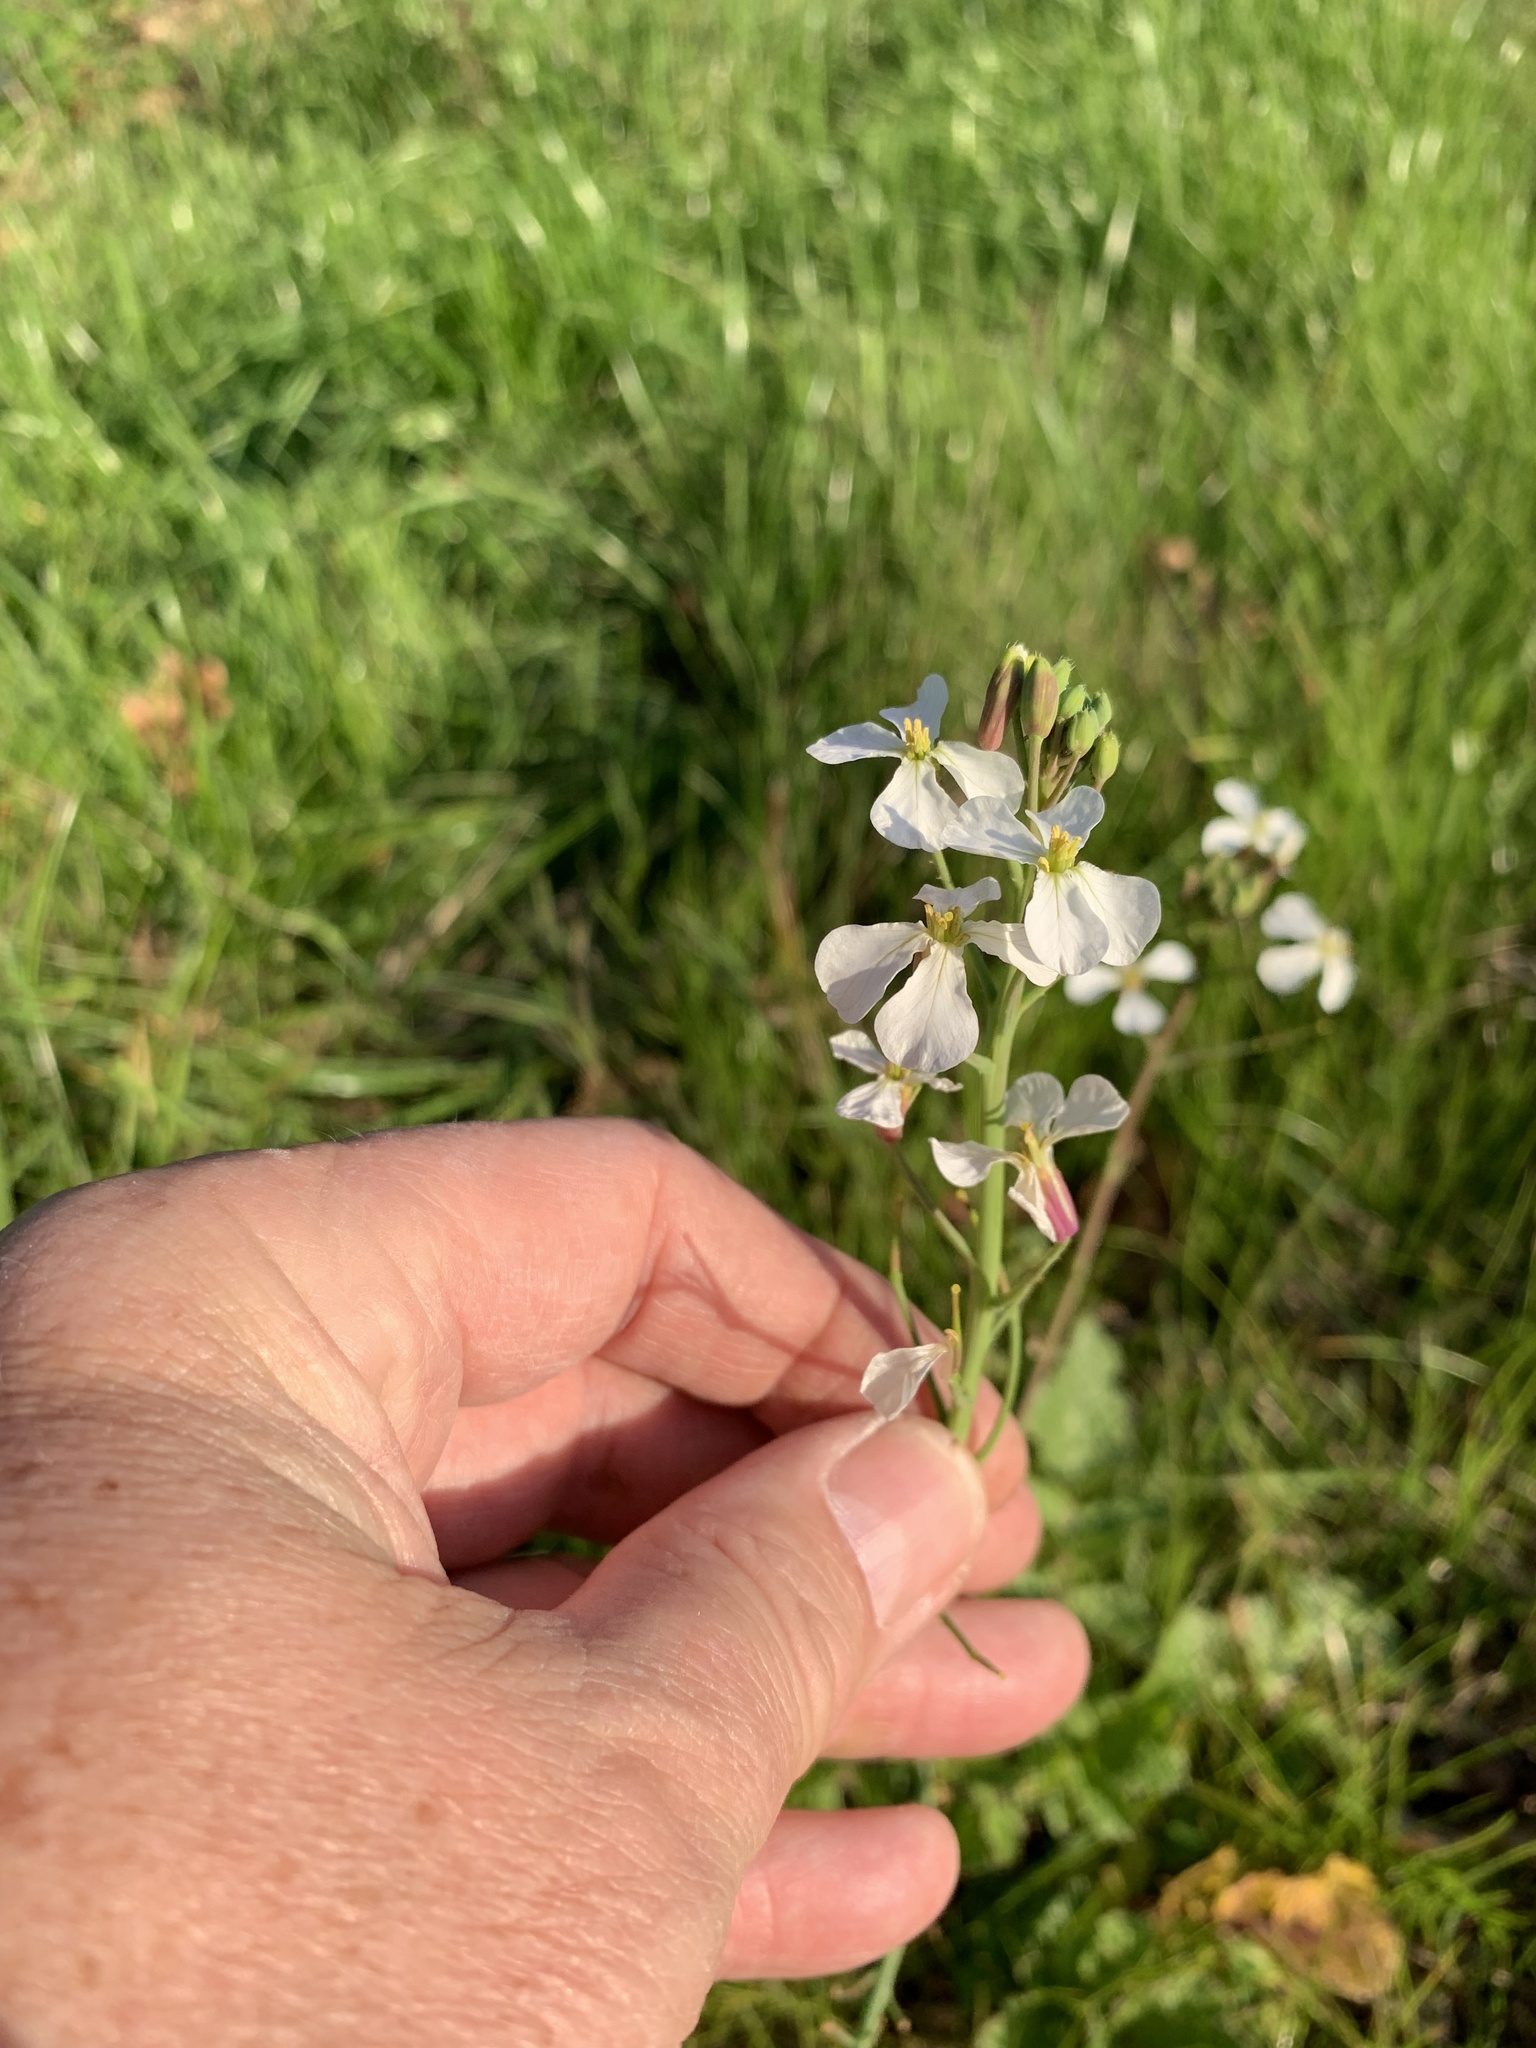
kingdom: Plantae
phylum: Tracheophyta
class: Magnoliopsida
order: Brassicales
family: Brassicaceae
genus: Raphanus
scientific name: Raphanus raphanistrum
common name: Wild radish
